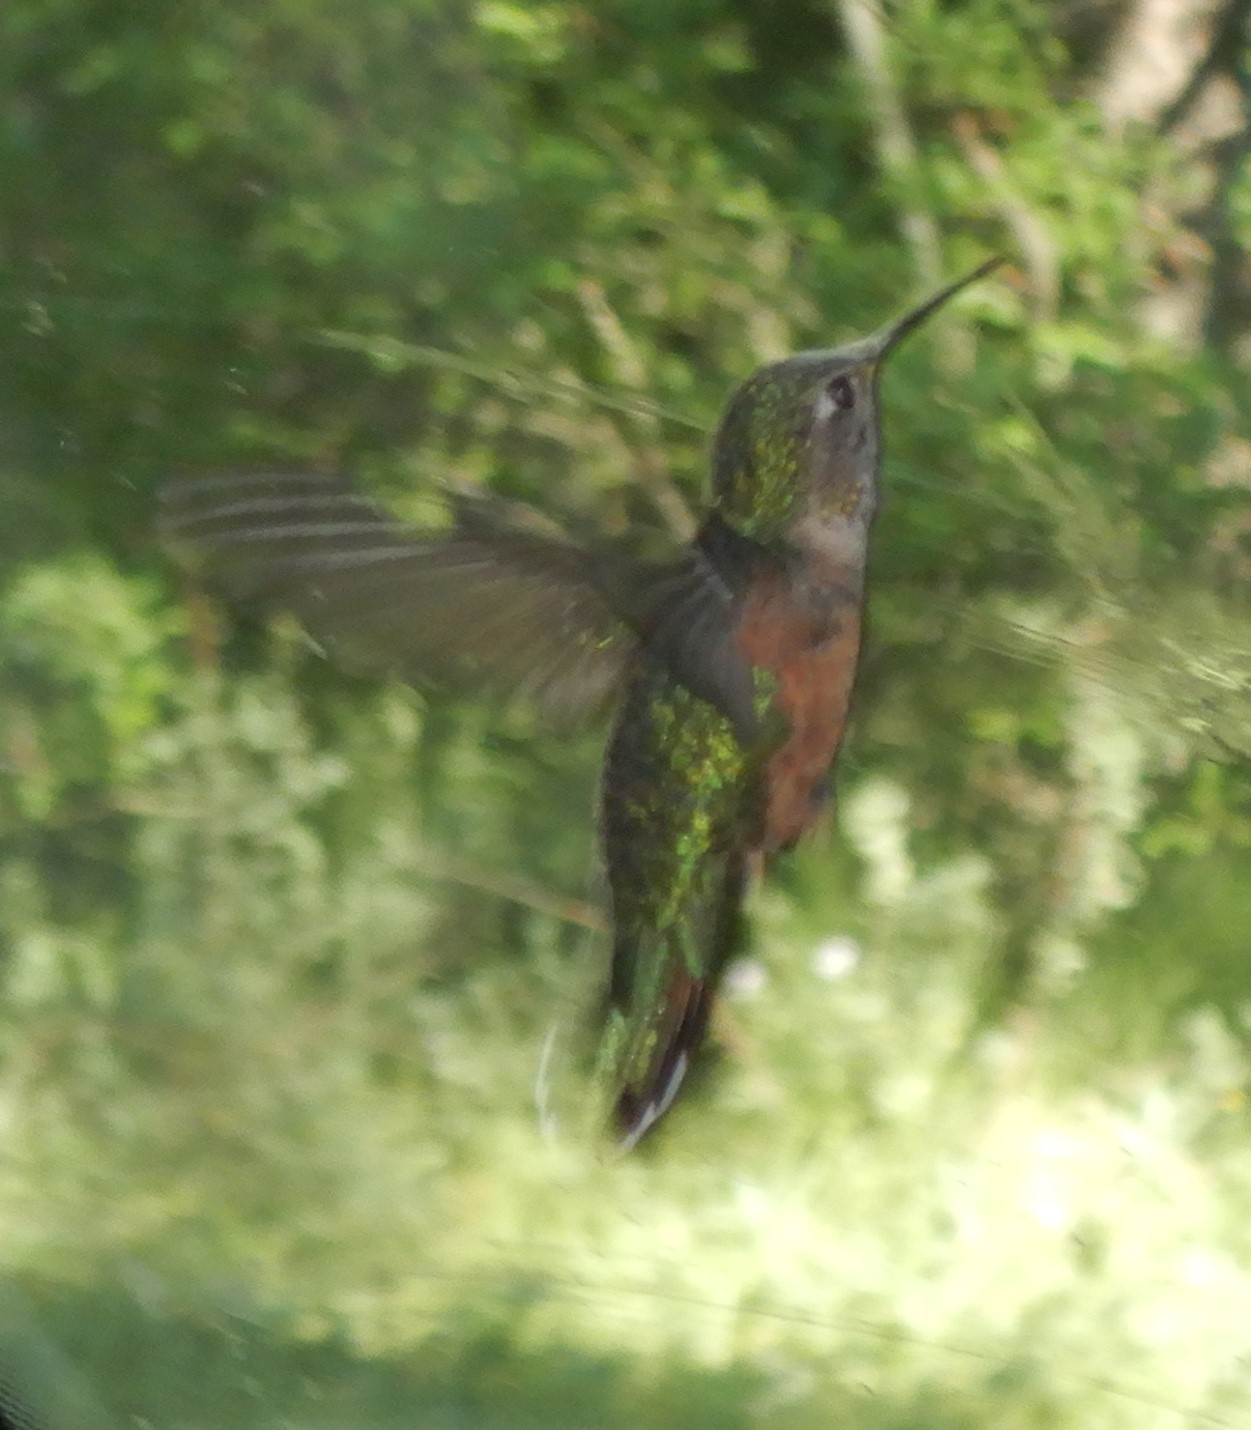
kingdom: Animalia
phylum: Chordata
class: Aves
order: Apodiformes
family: Trochilidae
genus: Selasphorus
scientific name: Selasphorus platycercus
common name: Broad-tailed hummingbird
